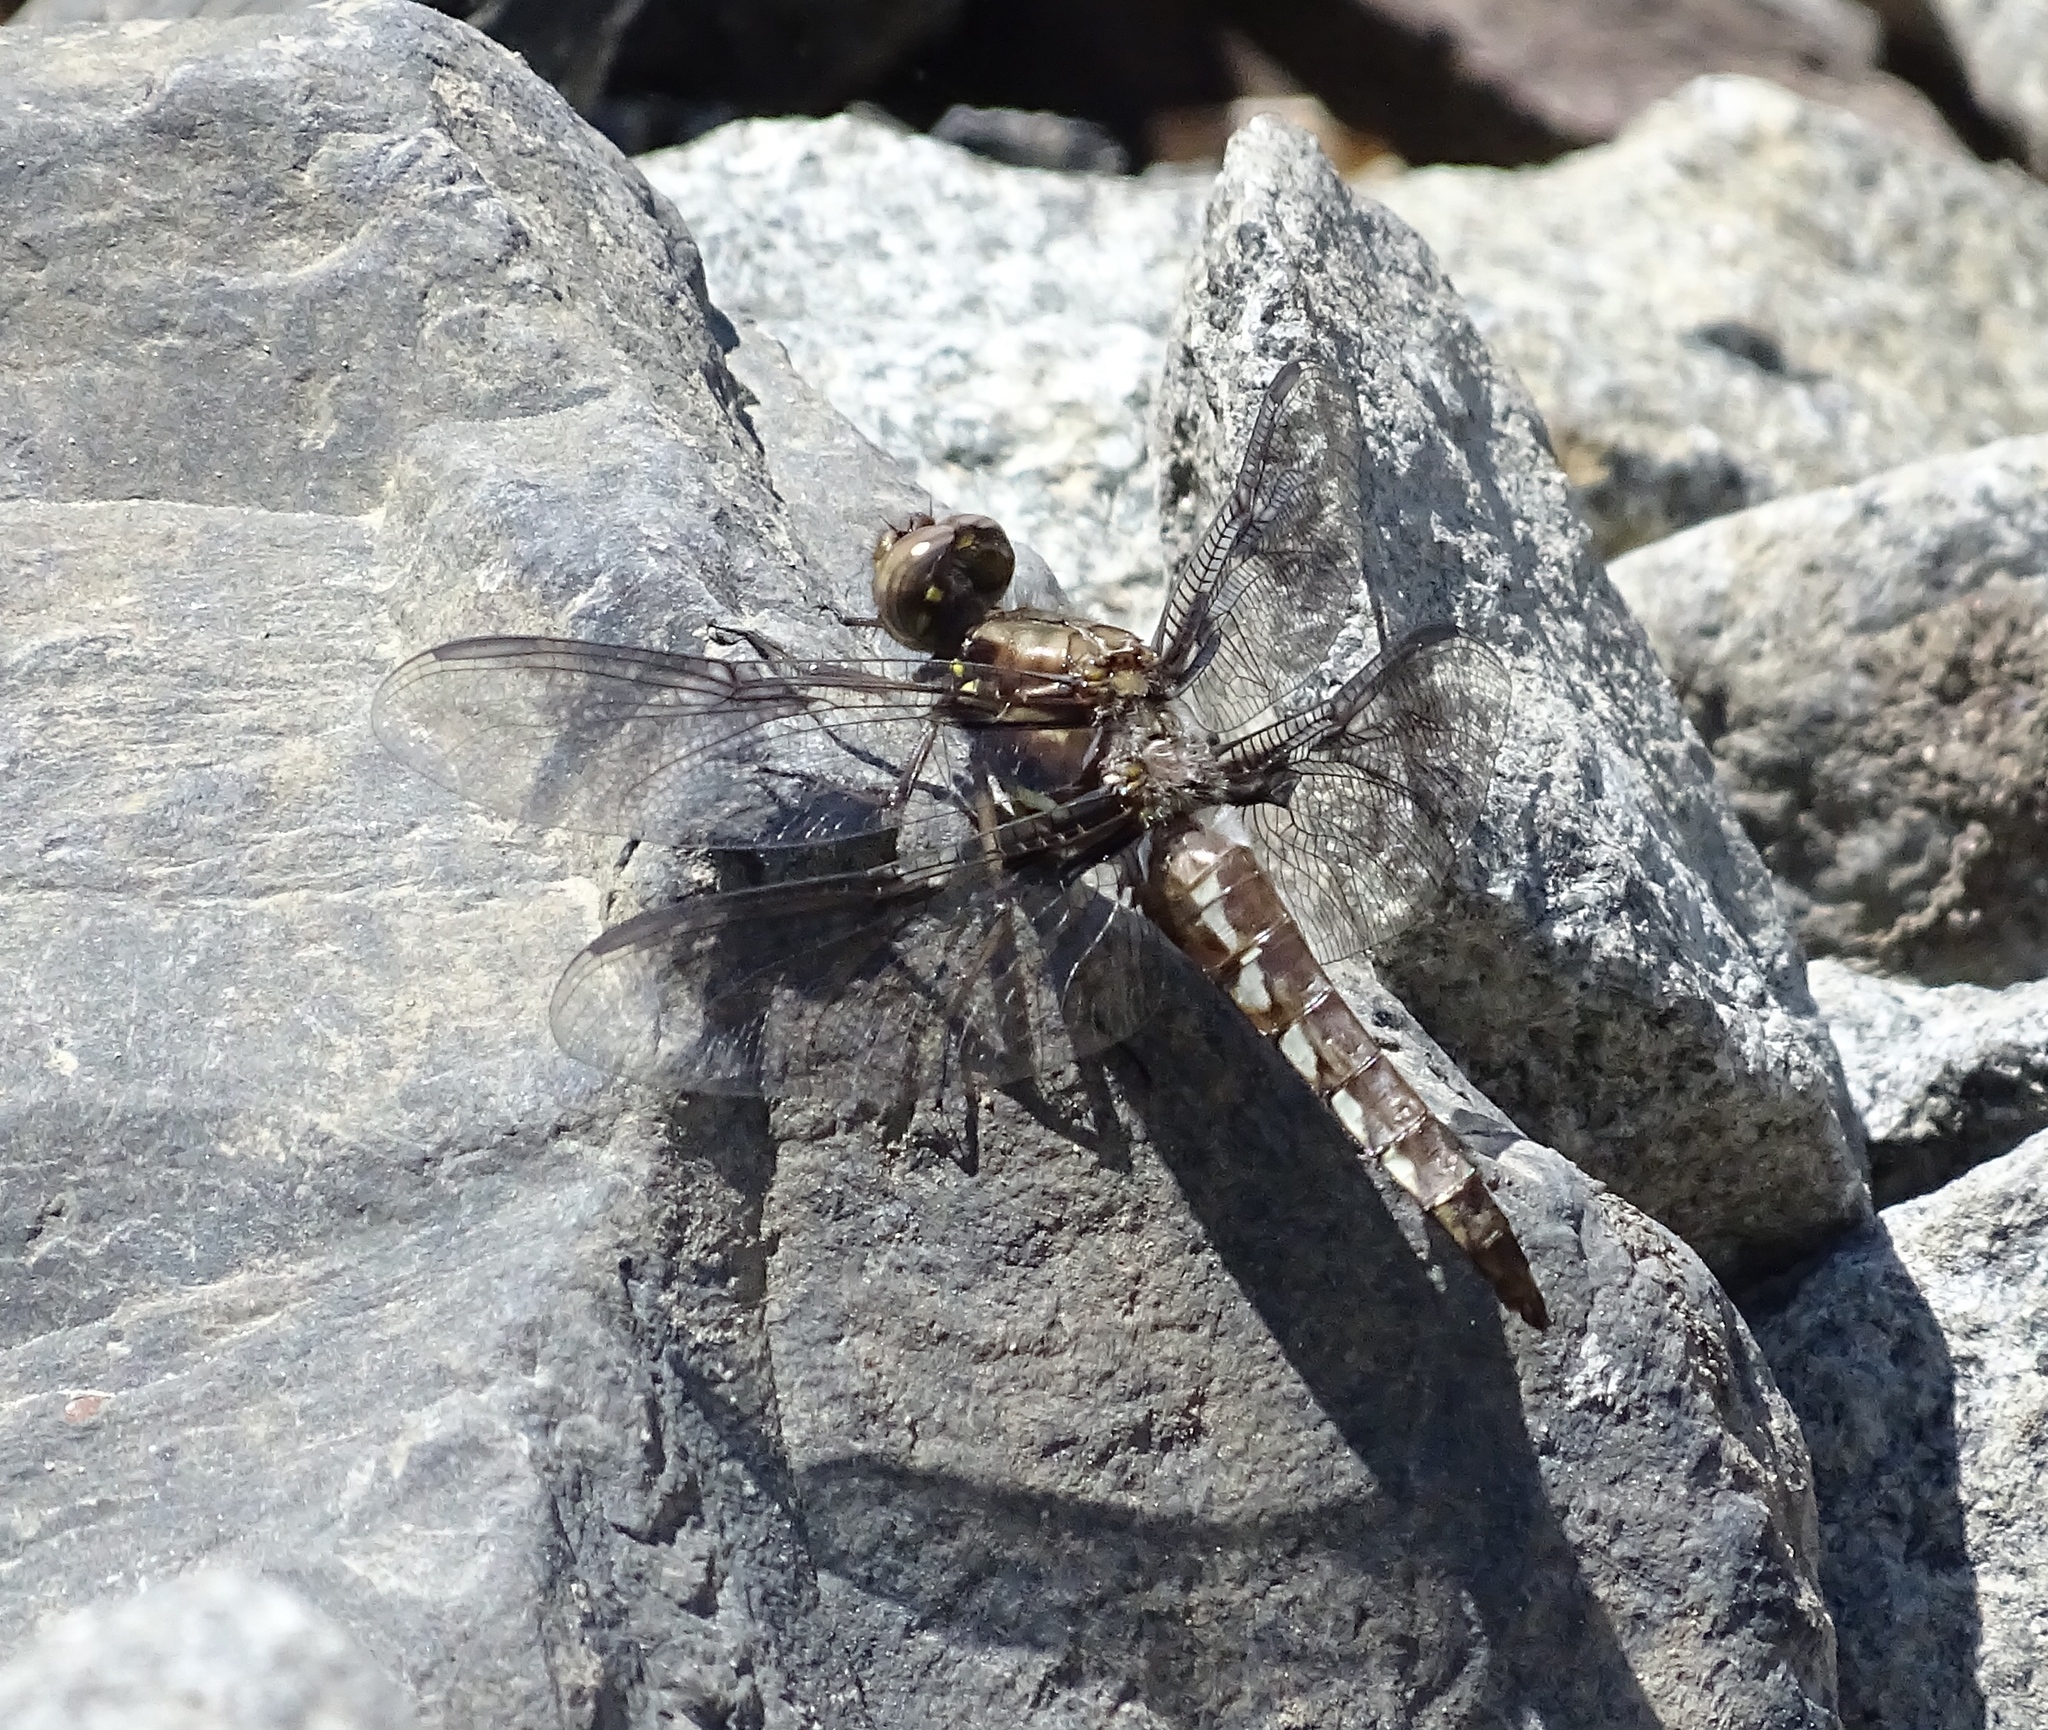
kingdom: Animalia
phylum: Arthropoda
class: Insecta
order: Odonata
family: Libellulidae
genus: Plathemis
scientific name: Plathemis lydia
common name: Common whitetail
